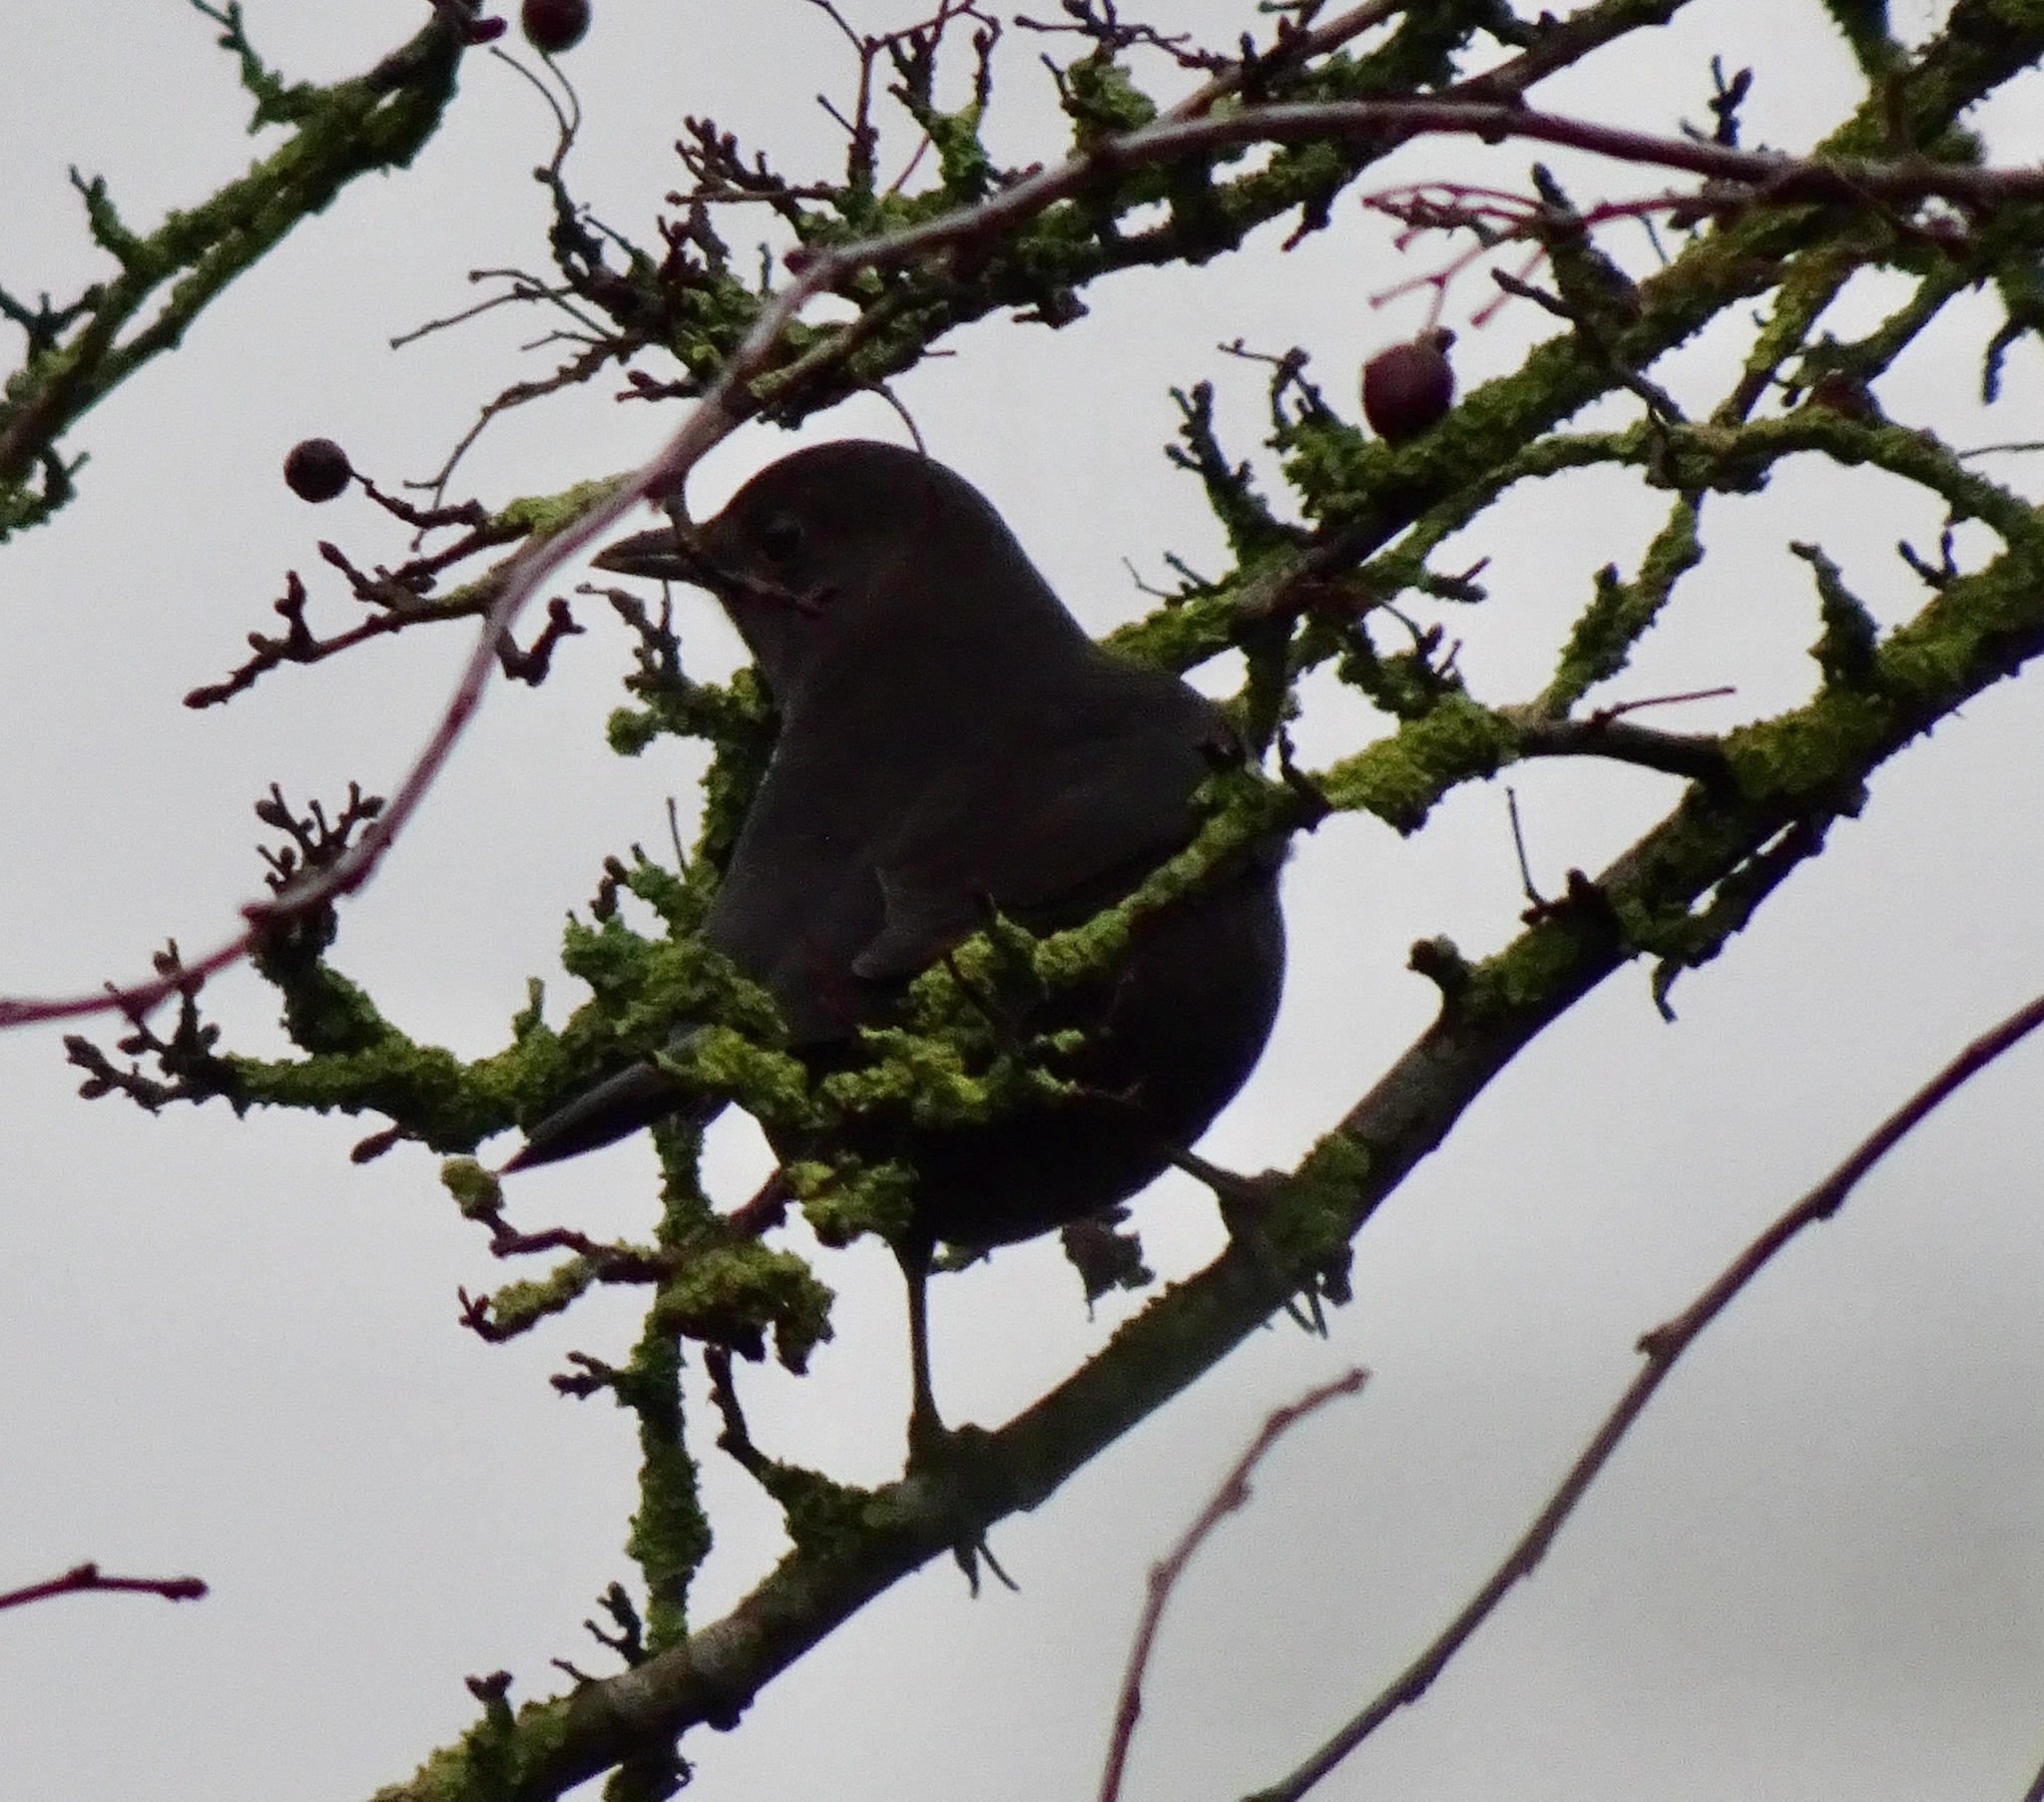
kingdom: Animalia
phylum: Chordata
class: Aves
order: Passeriformes
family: Turdidae
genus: Turdus
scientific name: Turdus merula
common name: Common blackbird
